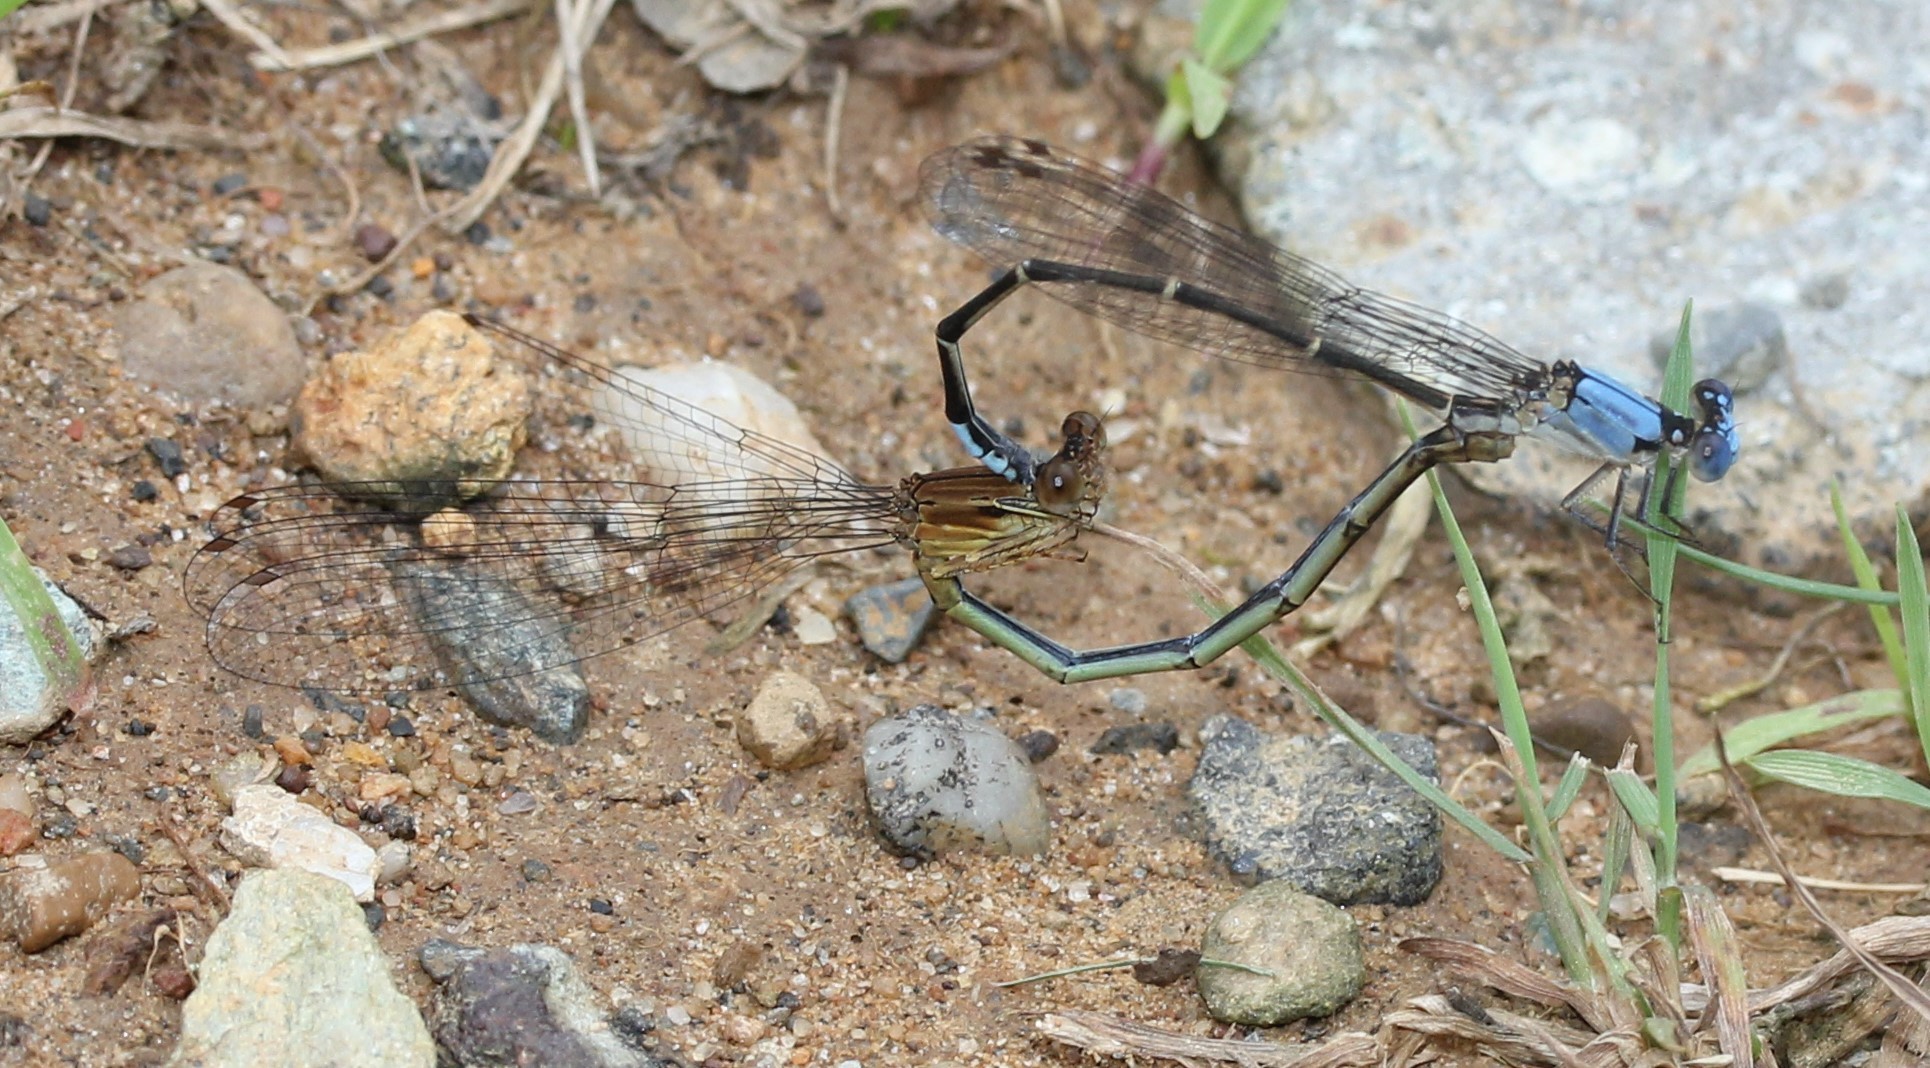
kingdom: Animalia
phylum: Arthropoda
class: Insecta
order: Odonata
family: Coenagrionidae
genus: Argia
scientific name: Argia apicalis
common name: Blue-fronted dancer
